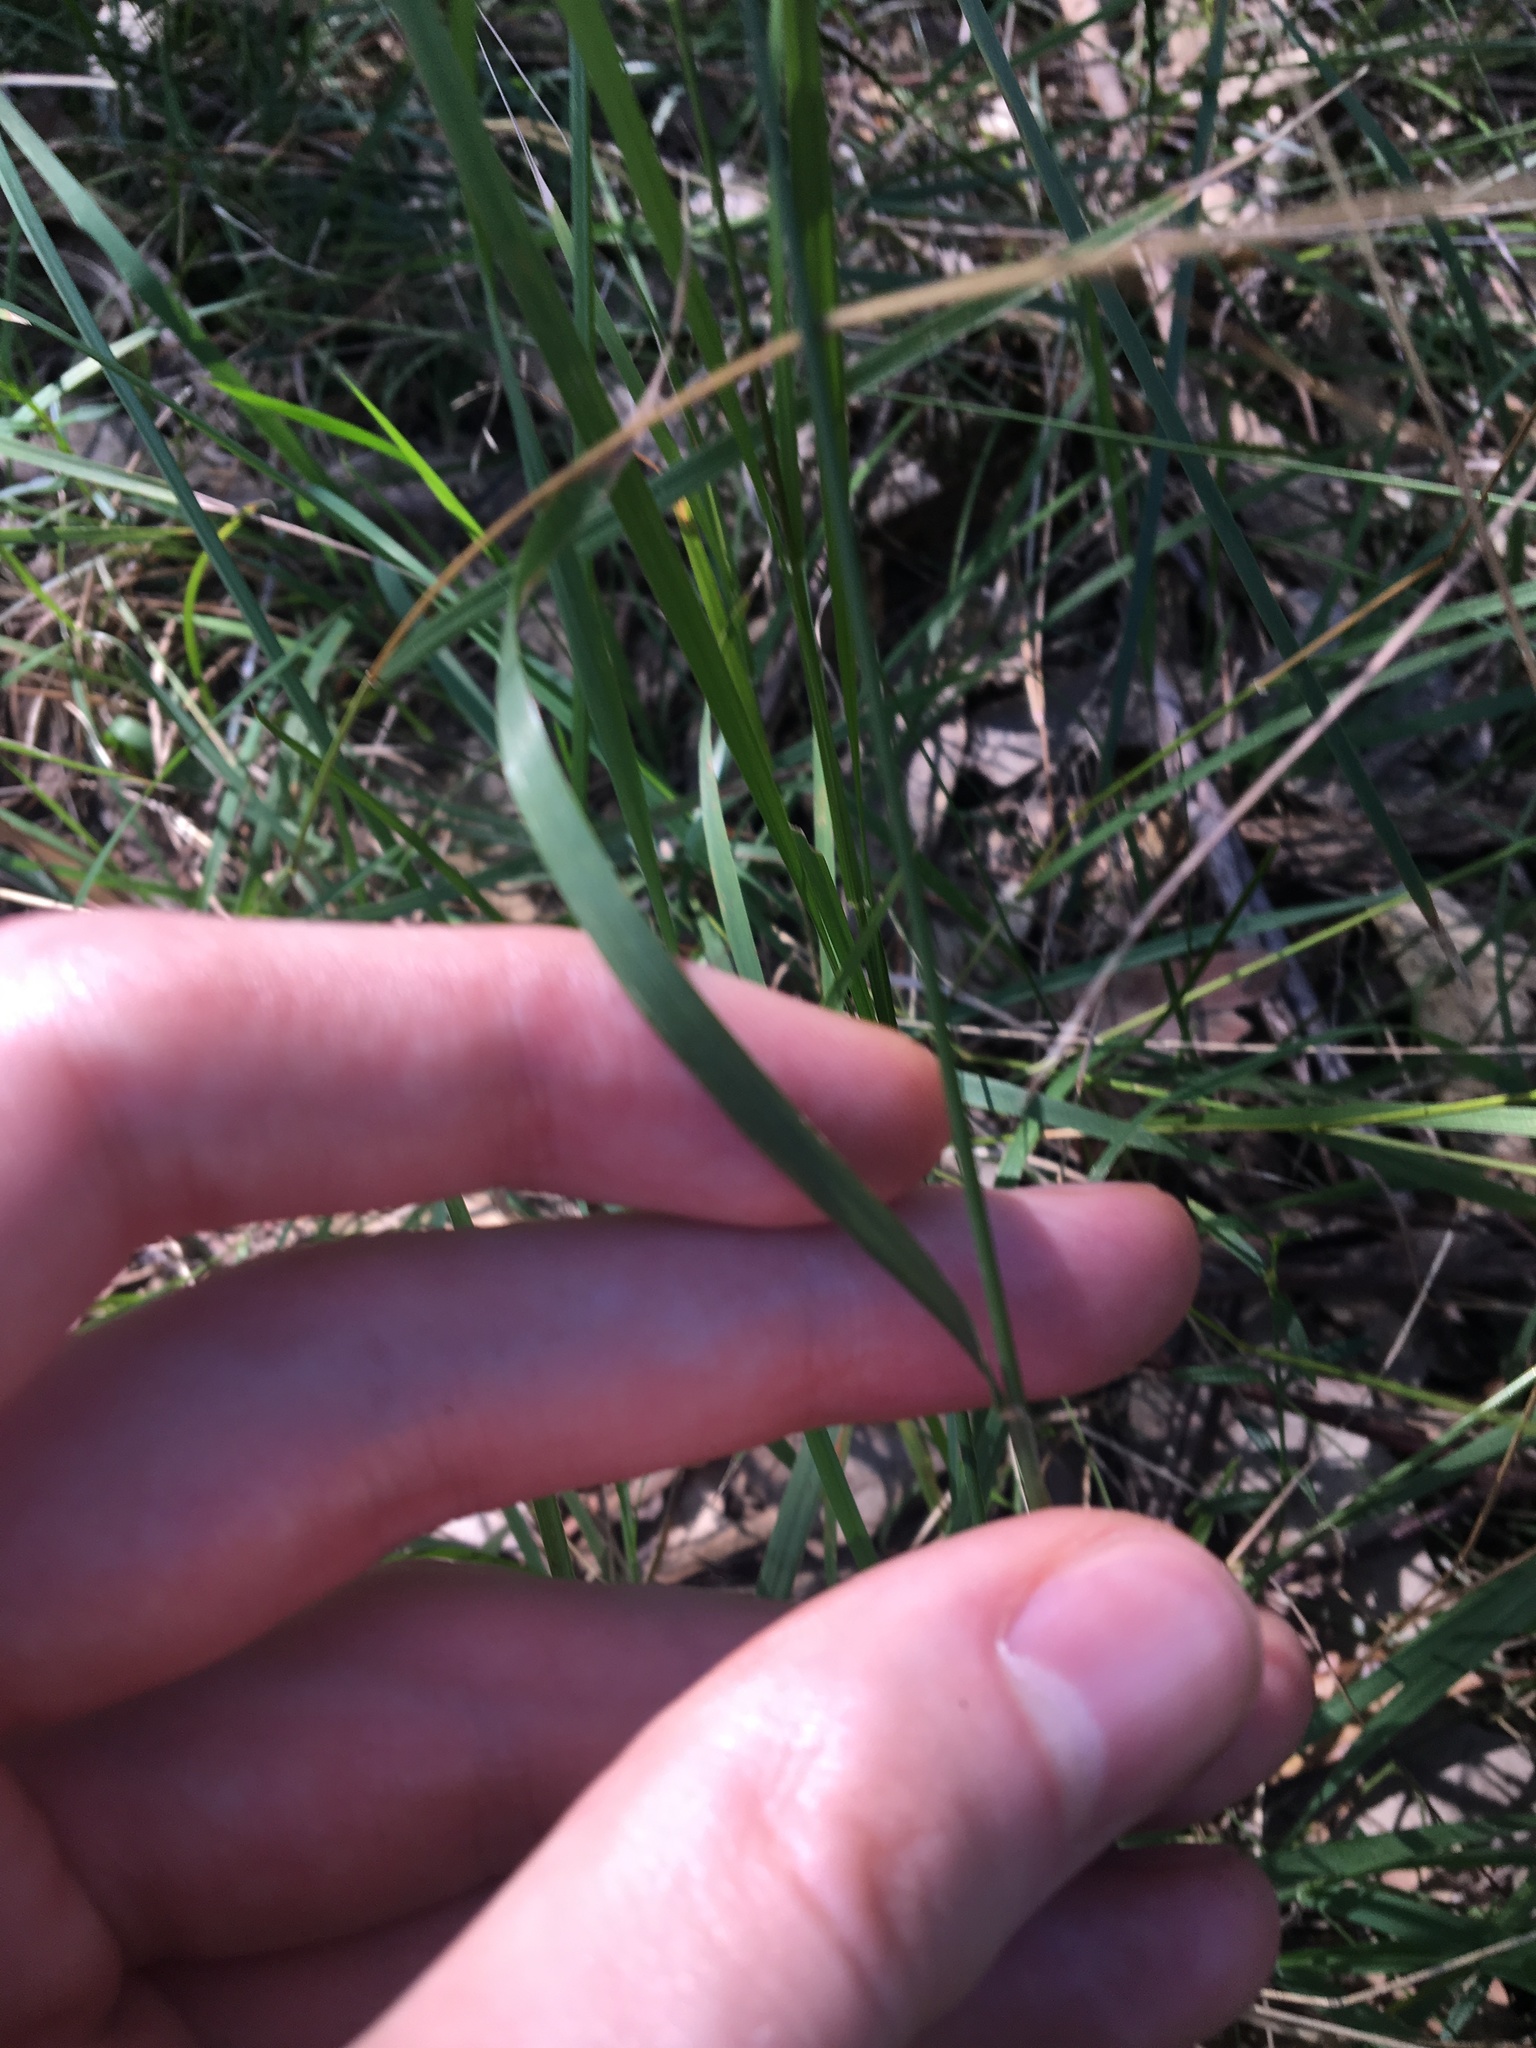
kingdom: Plantae
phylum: Tracheophyta
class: Liliopsida
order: Poales
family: Poaceae
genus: Echinopogon
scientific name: Echinopogon caespitosus
